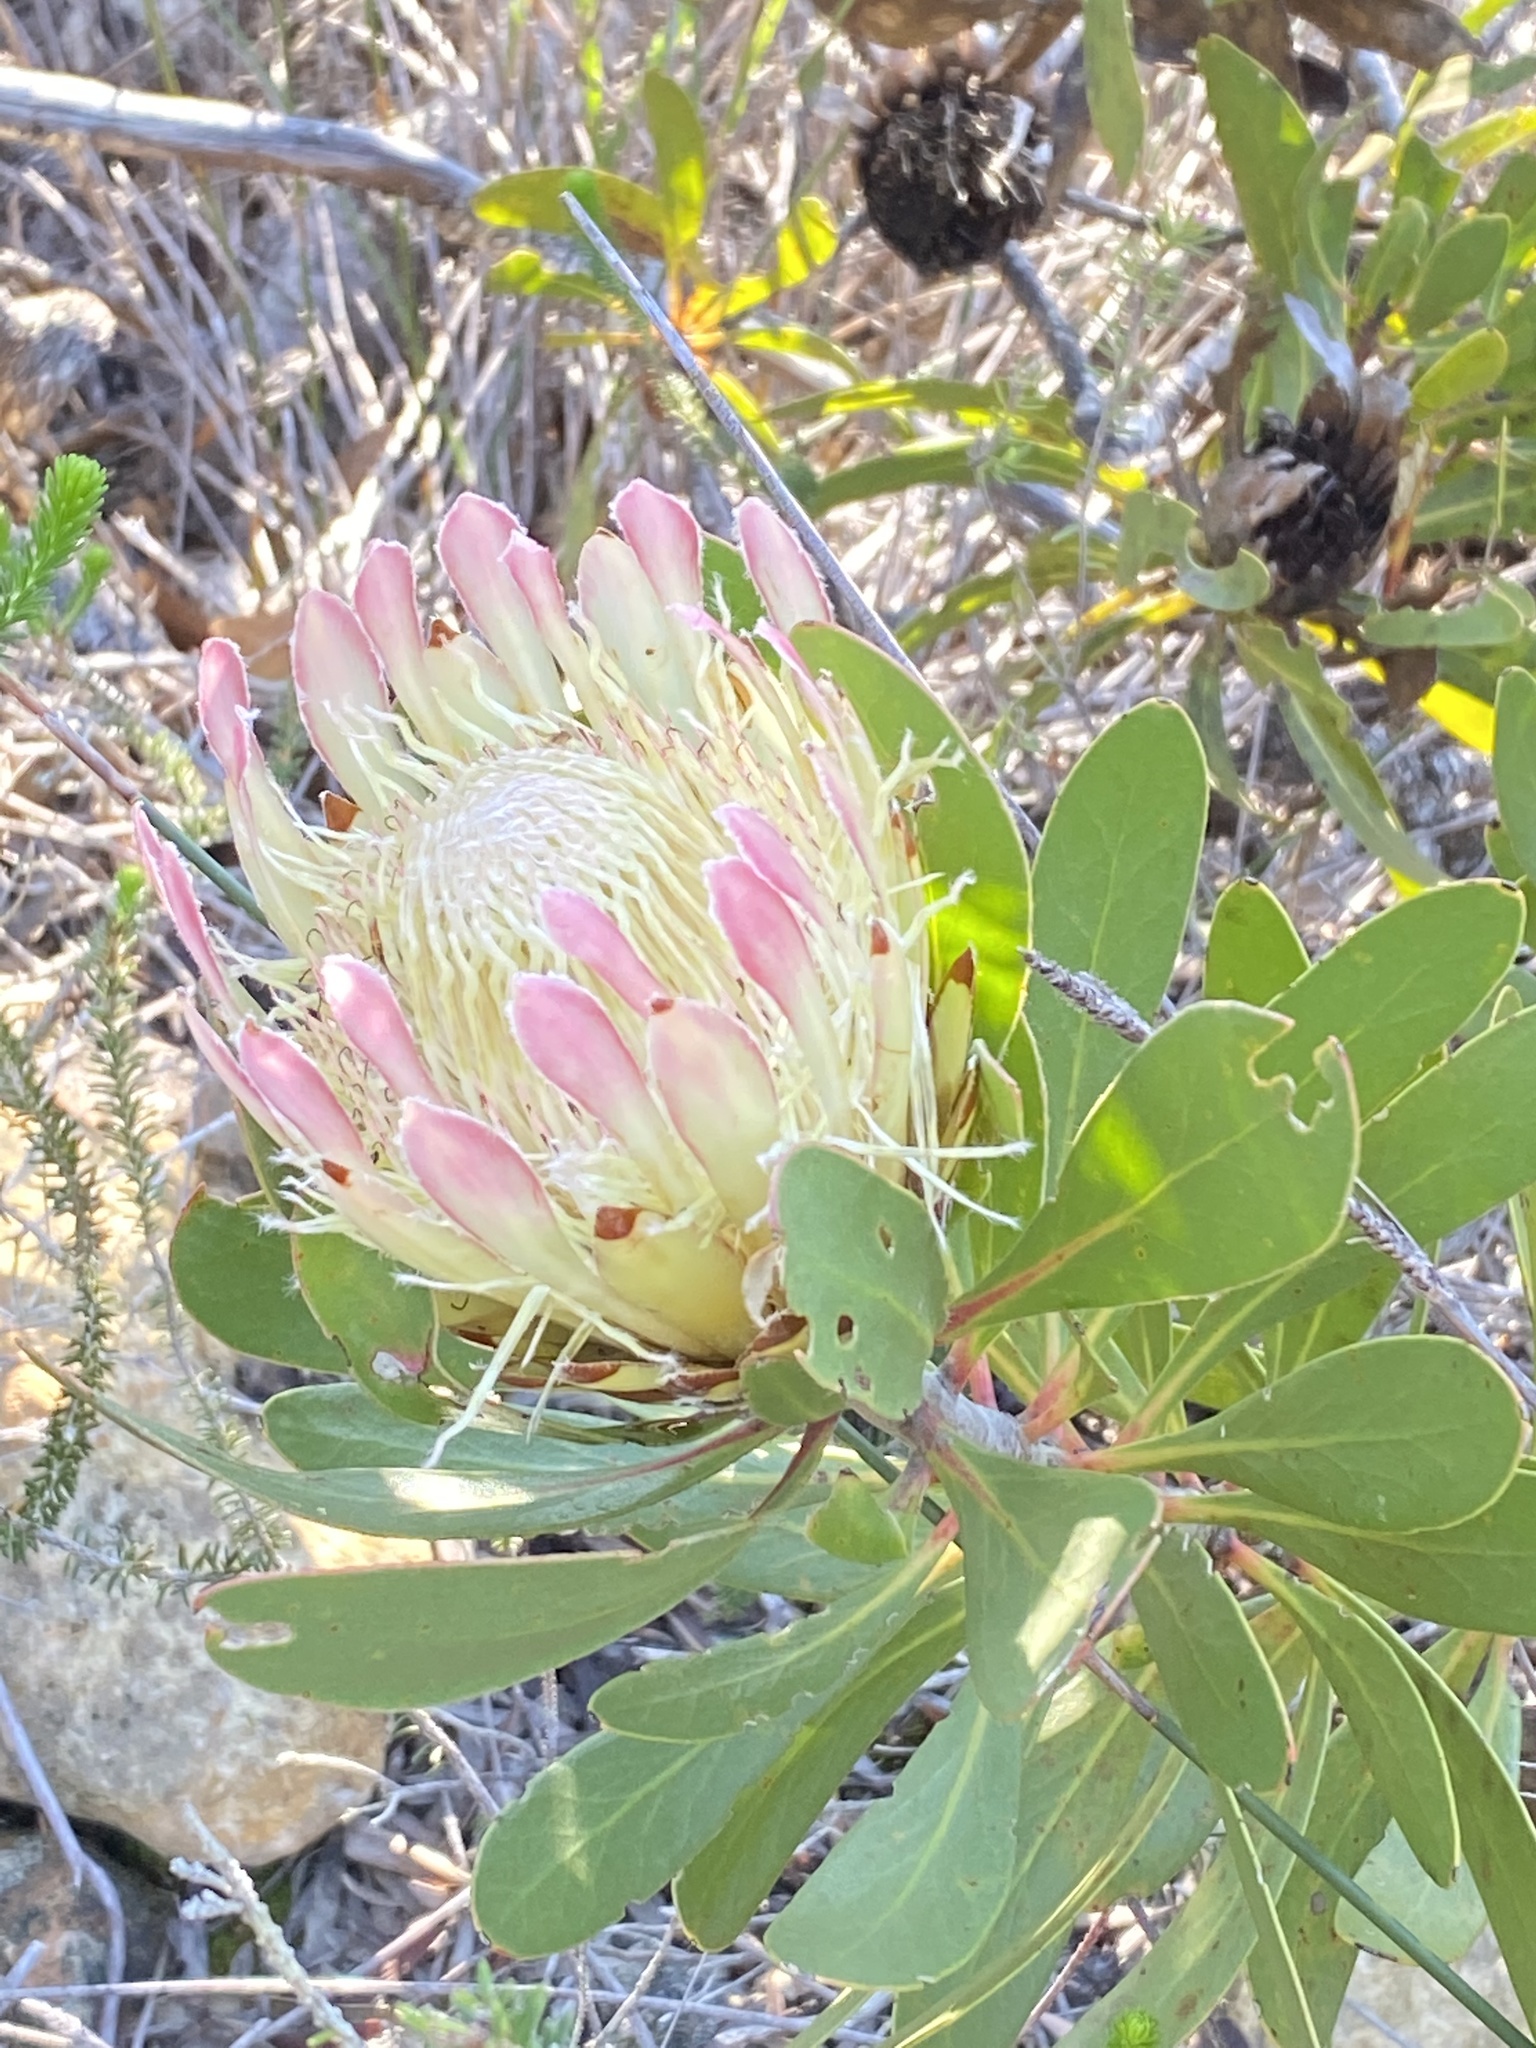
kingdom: Plantae
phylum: Tracheophyta
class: Magnoliopsida
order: Proteales
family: Proteaceae
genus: Protea
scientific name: Protea obtusifolia
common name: Bredasdorp sugarbush
